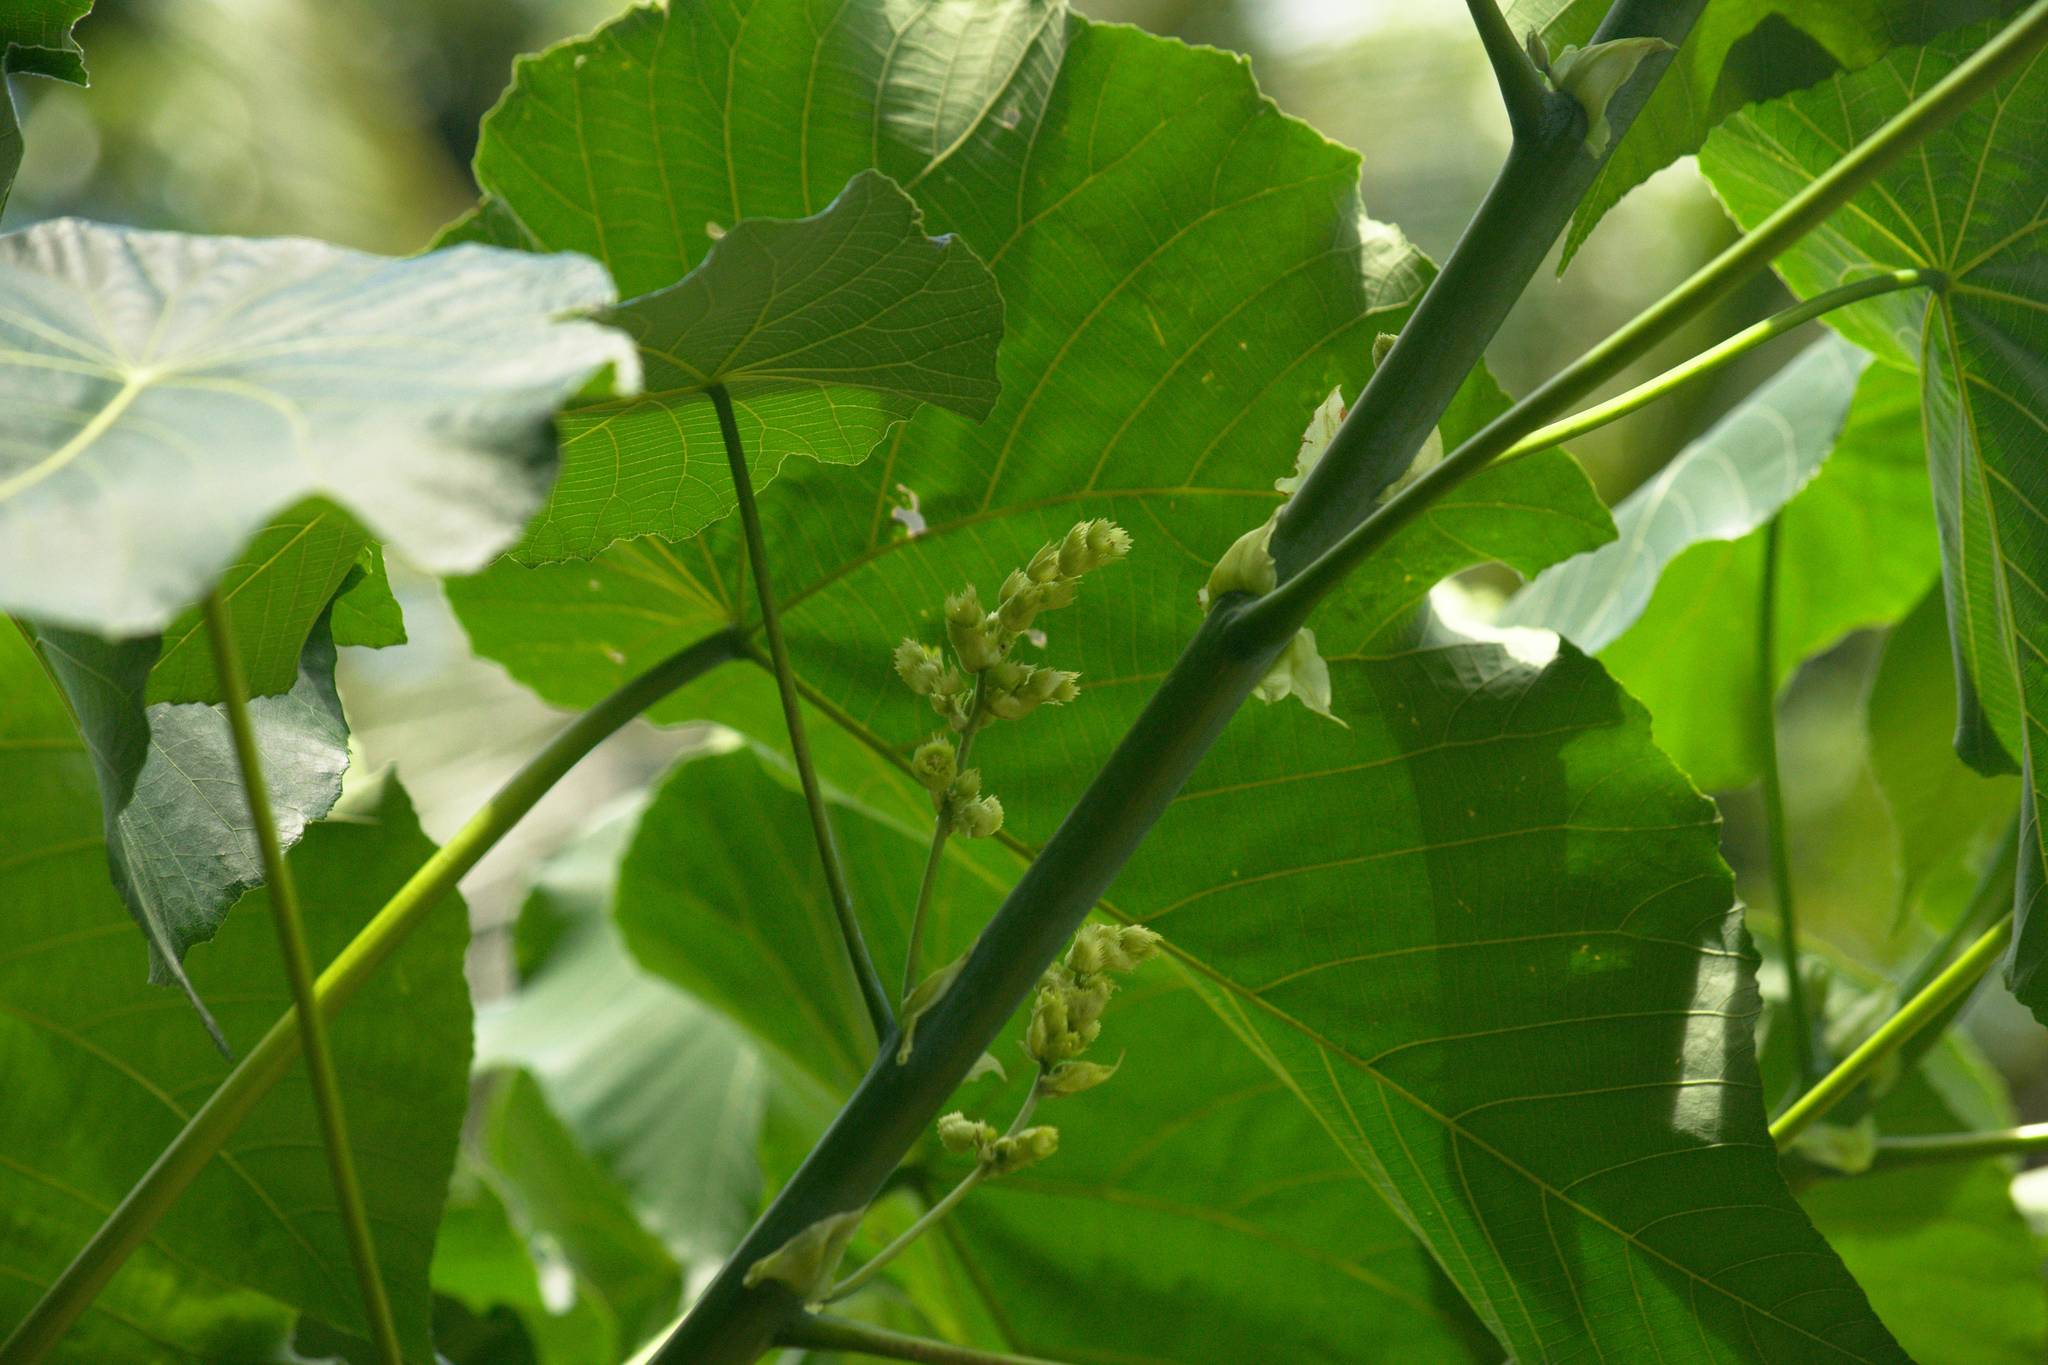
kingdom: Plantae
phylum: Tracheophyta
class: Magnoliopsida
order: Malpighiales
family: Euphorbiaceae
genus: Macaranga
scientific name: Macaranga tanarius
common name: Parasol leaf tree
